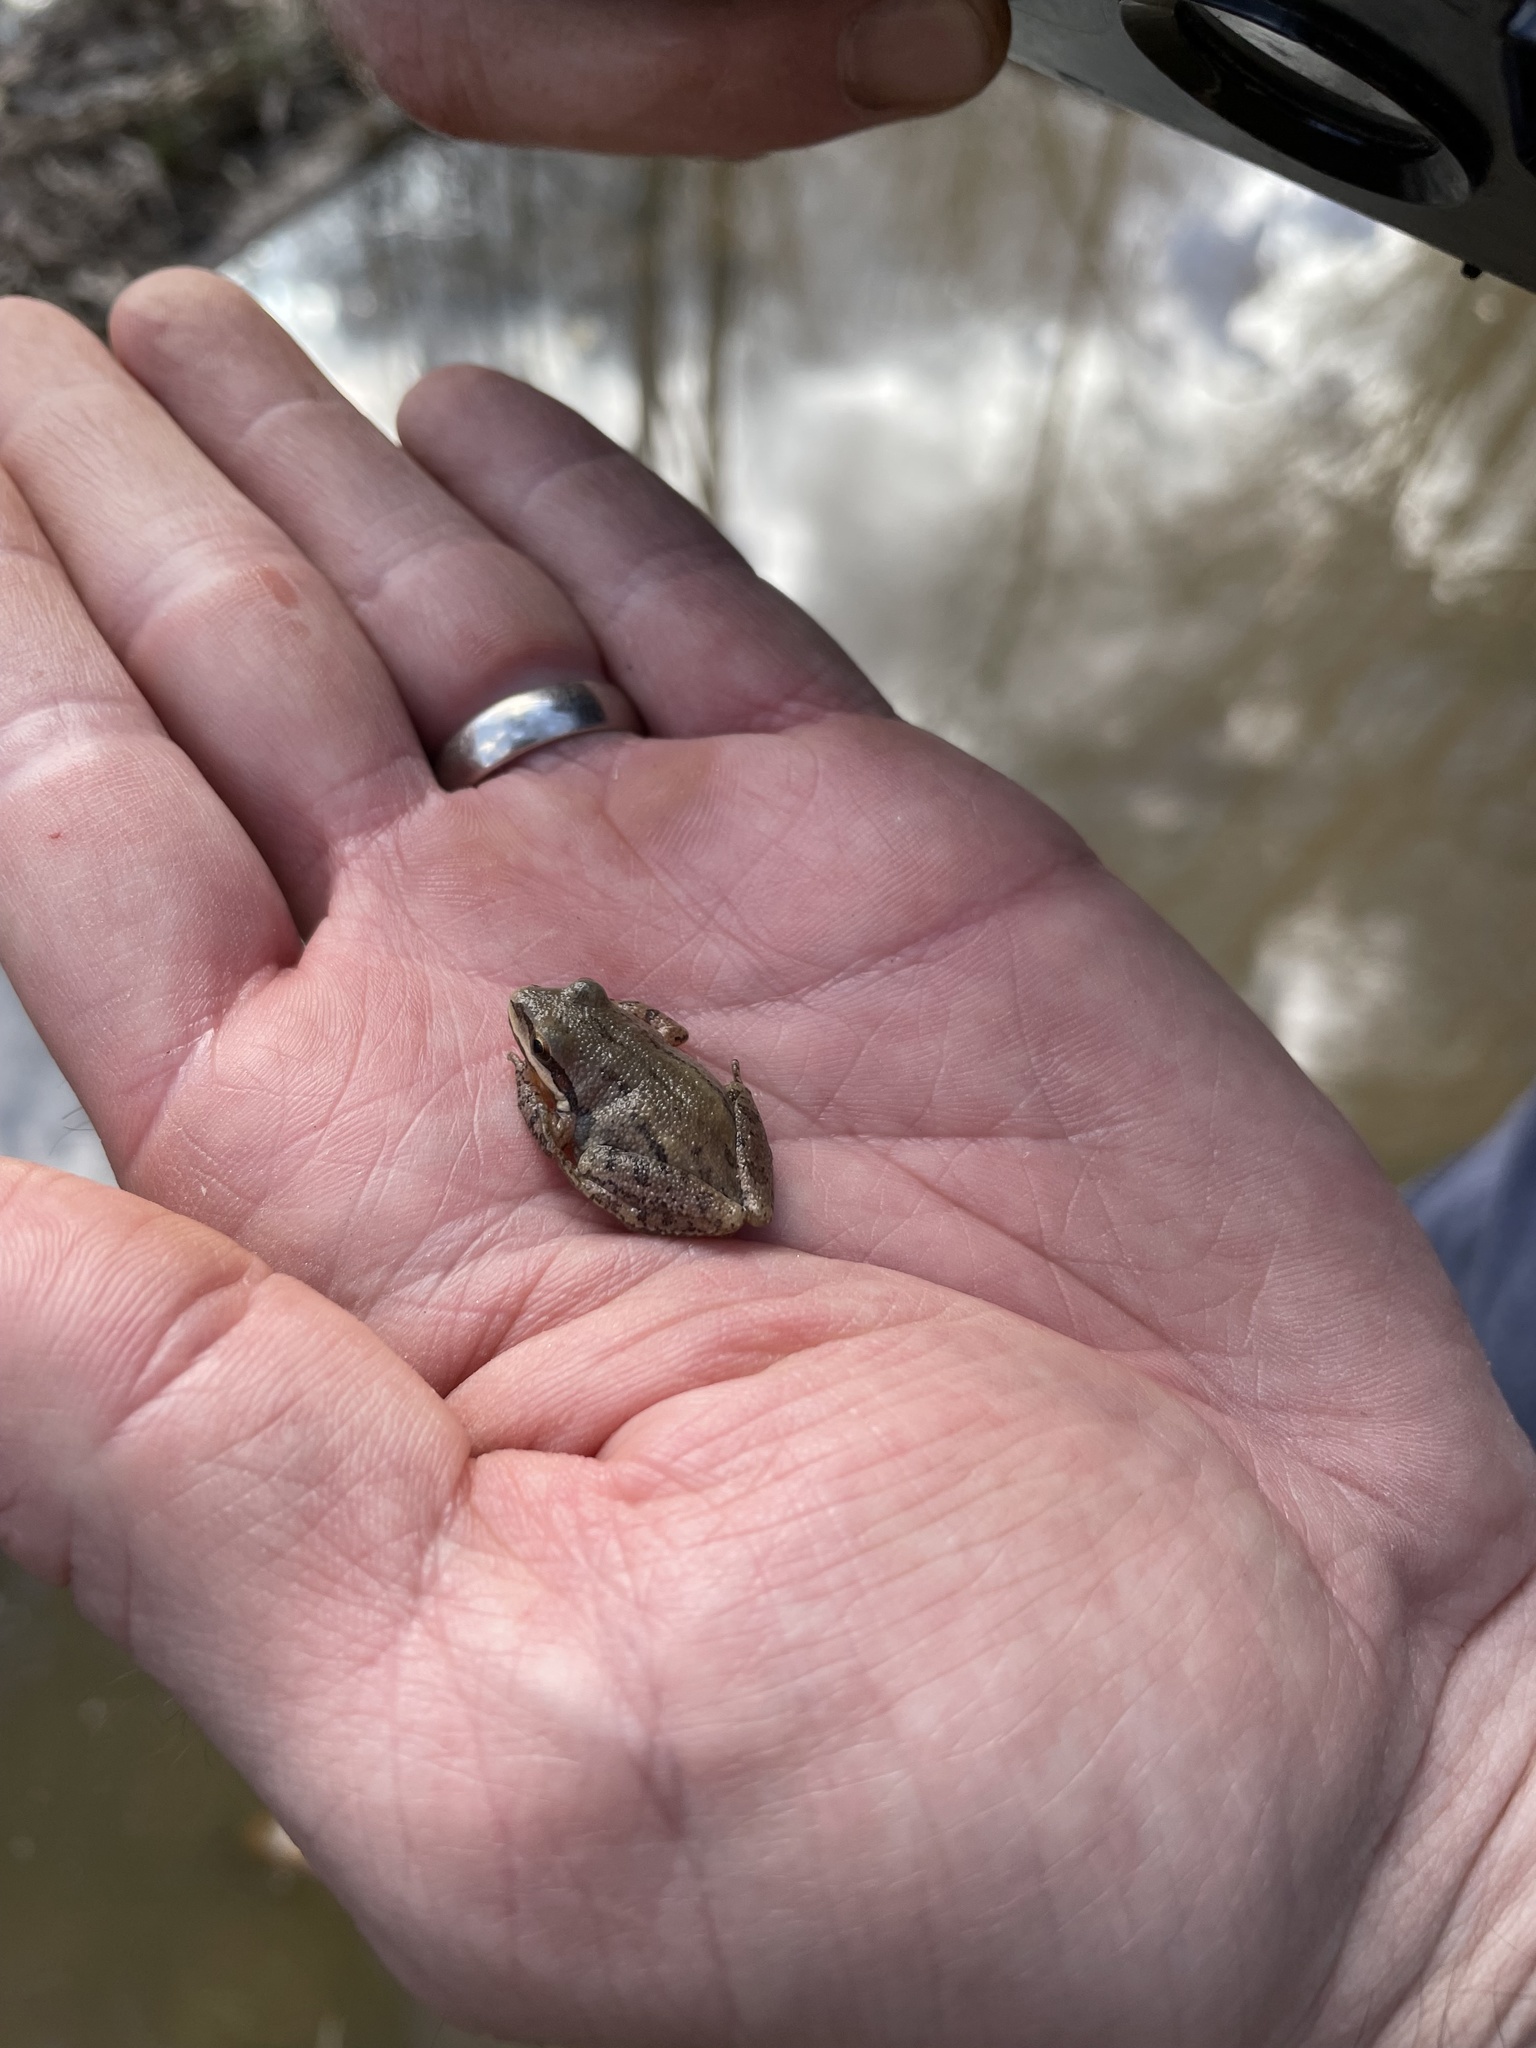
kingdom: Animalia
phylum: Chordata
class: Amphibia
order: Anura
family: Hylidae
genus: Pseudacris
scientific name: Pseudacris feriarum
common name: Upland chorus frog
